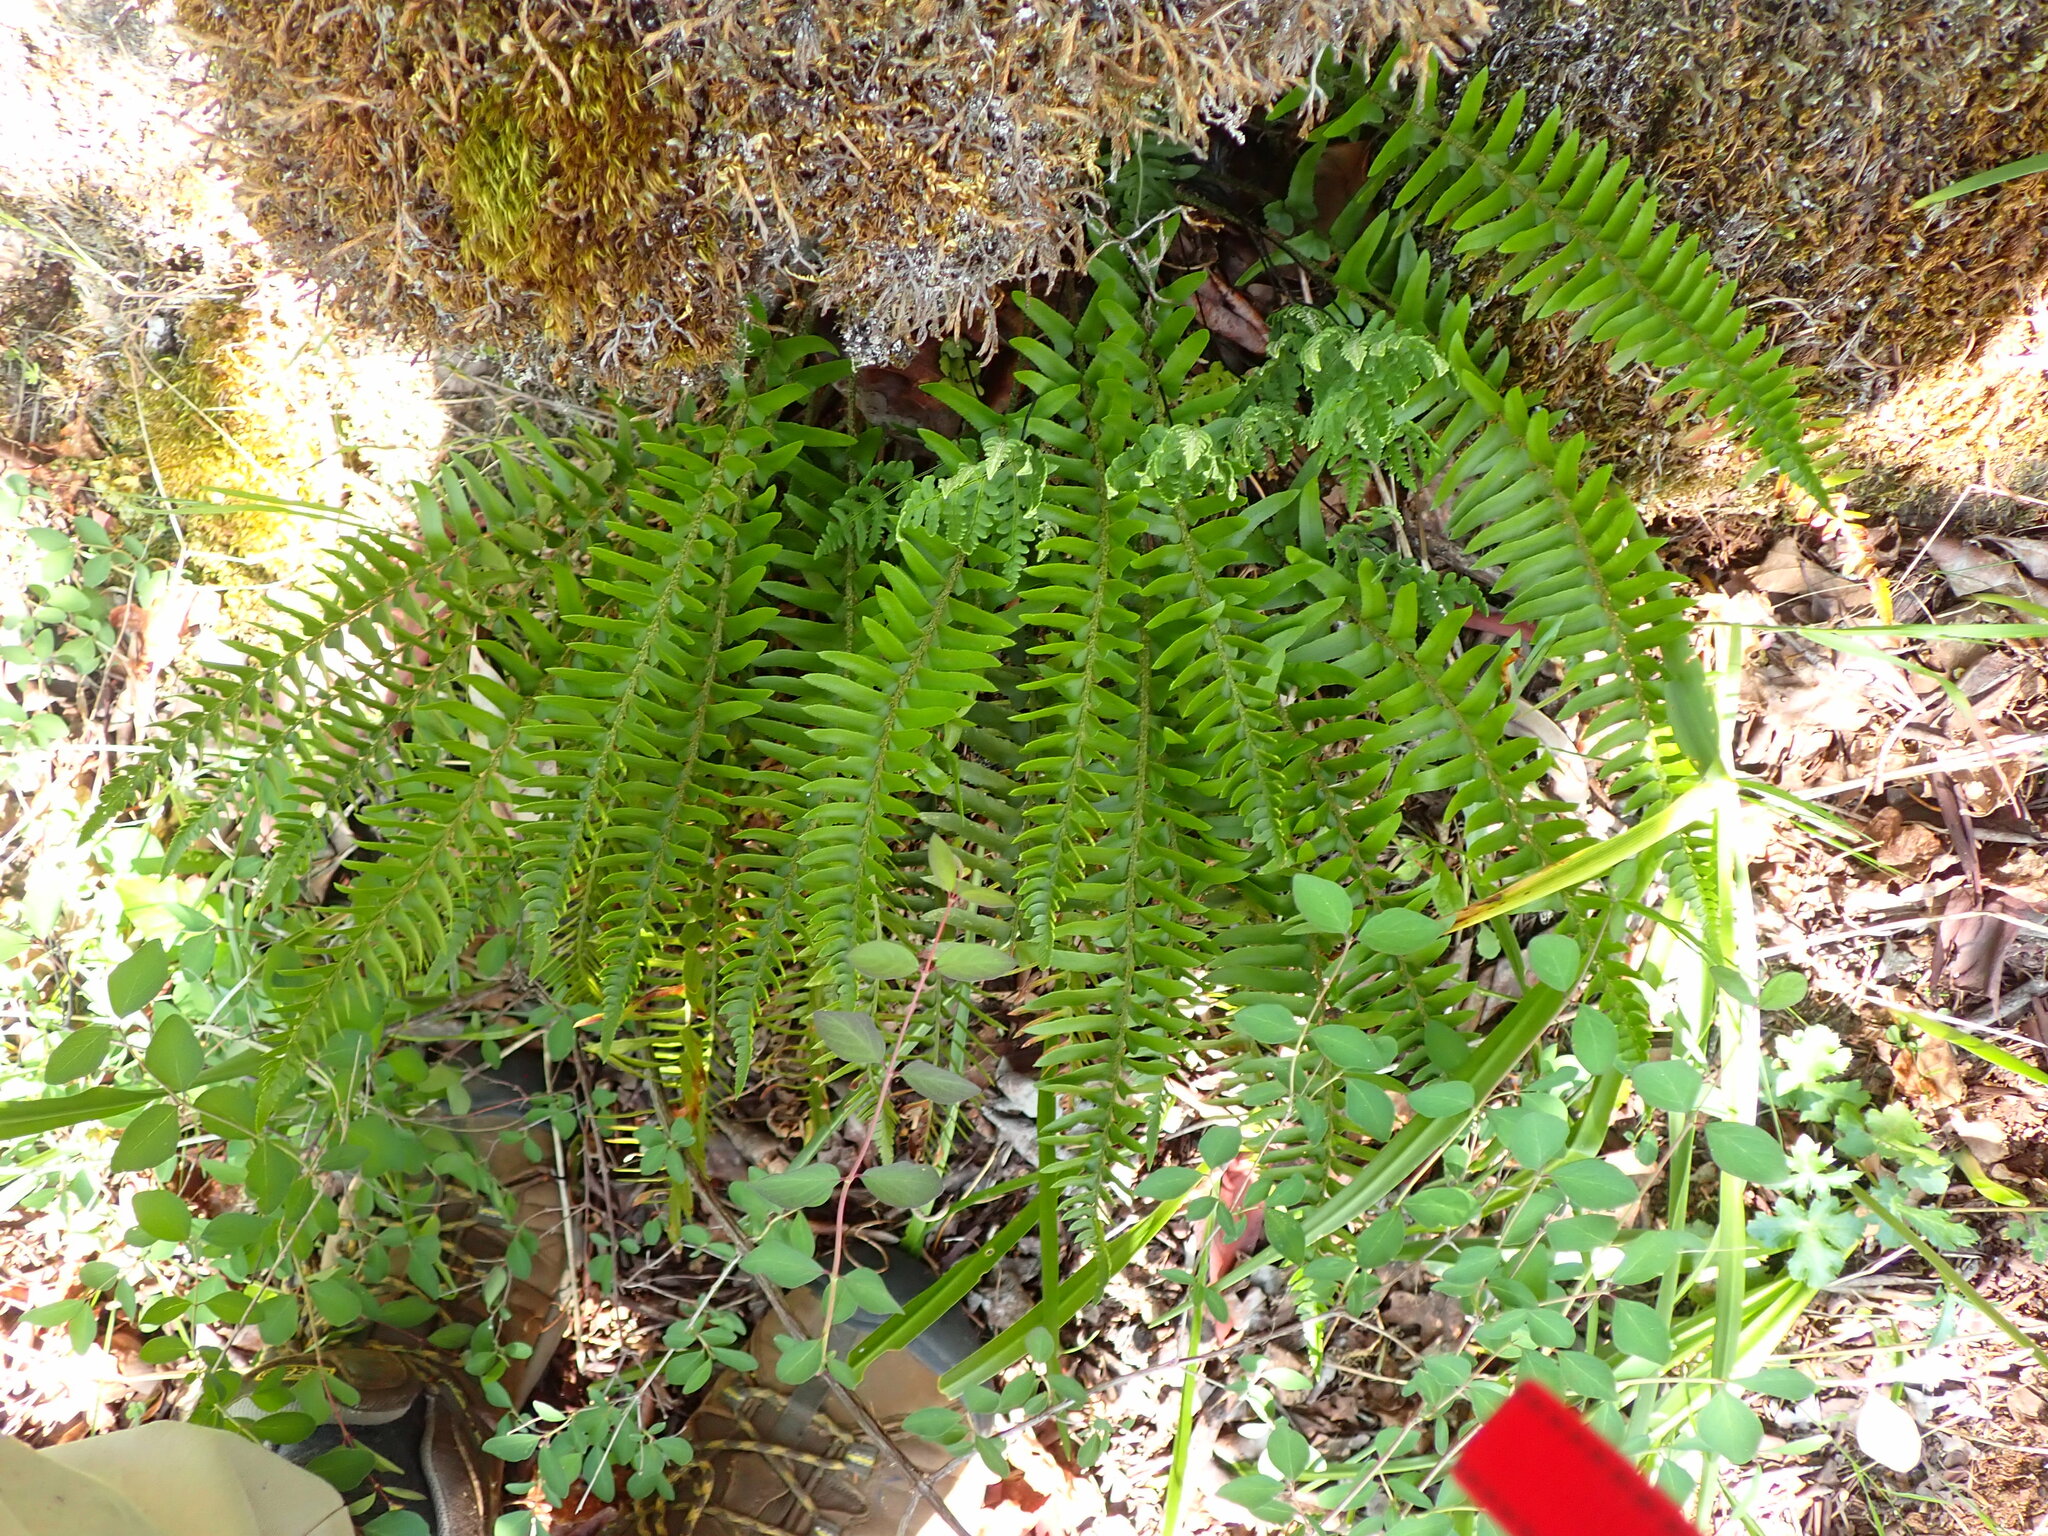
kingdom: Plantae
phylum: Tracheophyta
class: Polypodiopsida
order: Polypodiales
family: Dryopteridaceae
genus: Polystichum
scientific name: Polystichum munitum
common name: Western sword-fern
